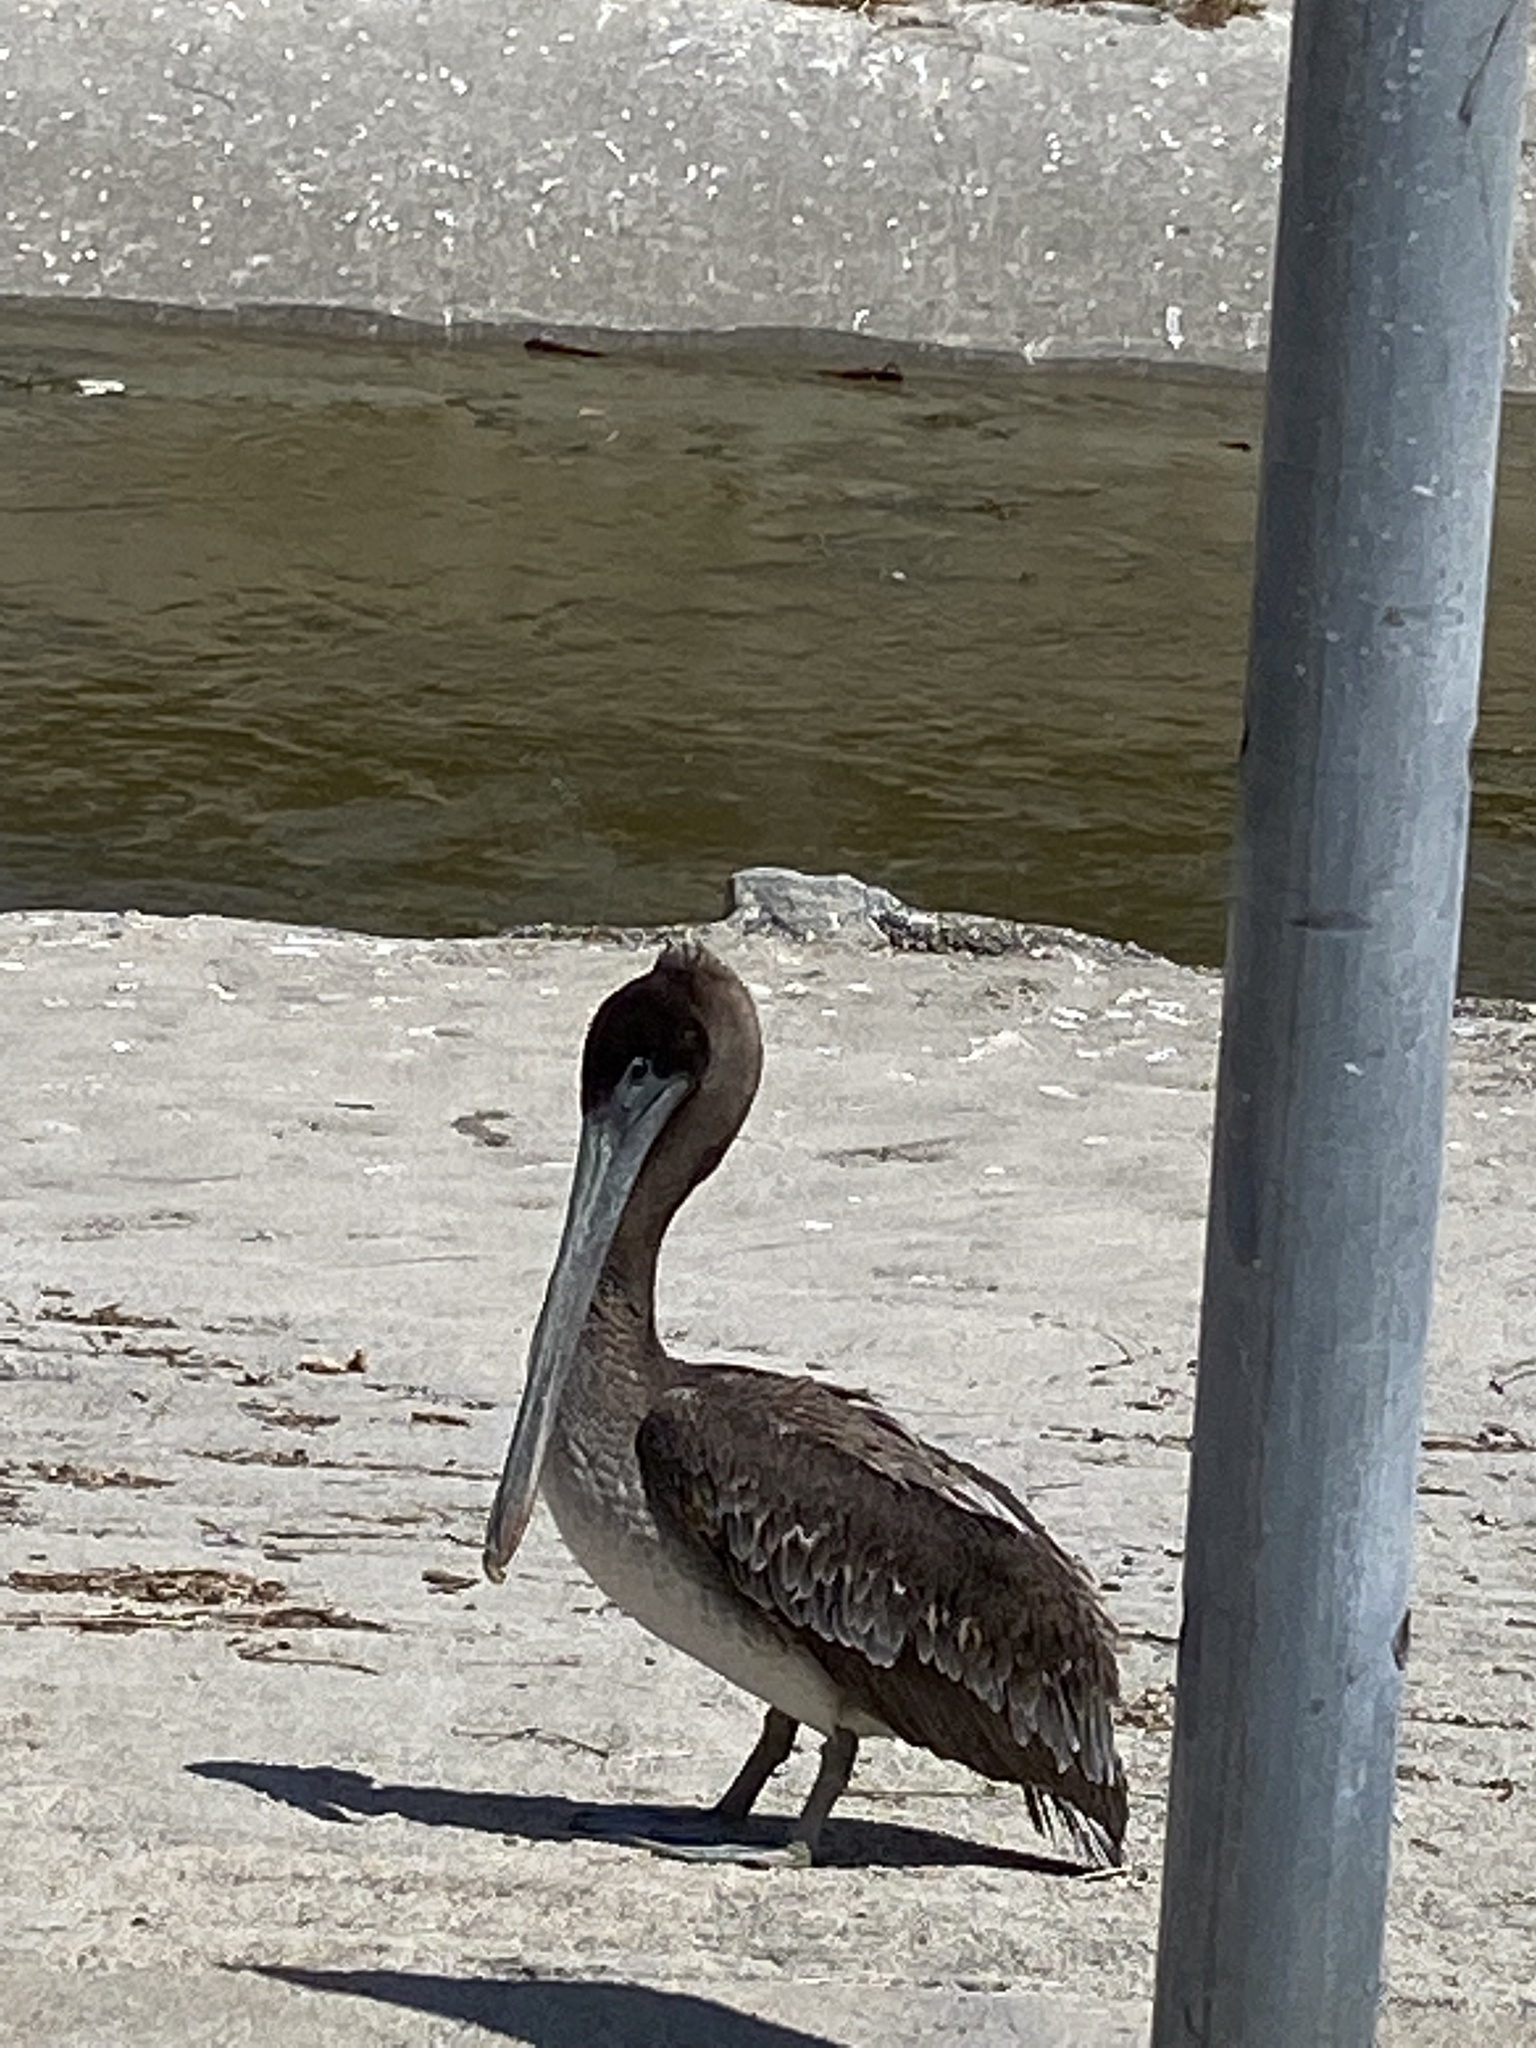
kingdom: Animalia
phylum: Chordata
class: Aves
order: Pelecaniformes
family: Pelecanidae
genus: Pelecanus
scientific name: Pelecanus occidentalis
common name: Brown pelican
